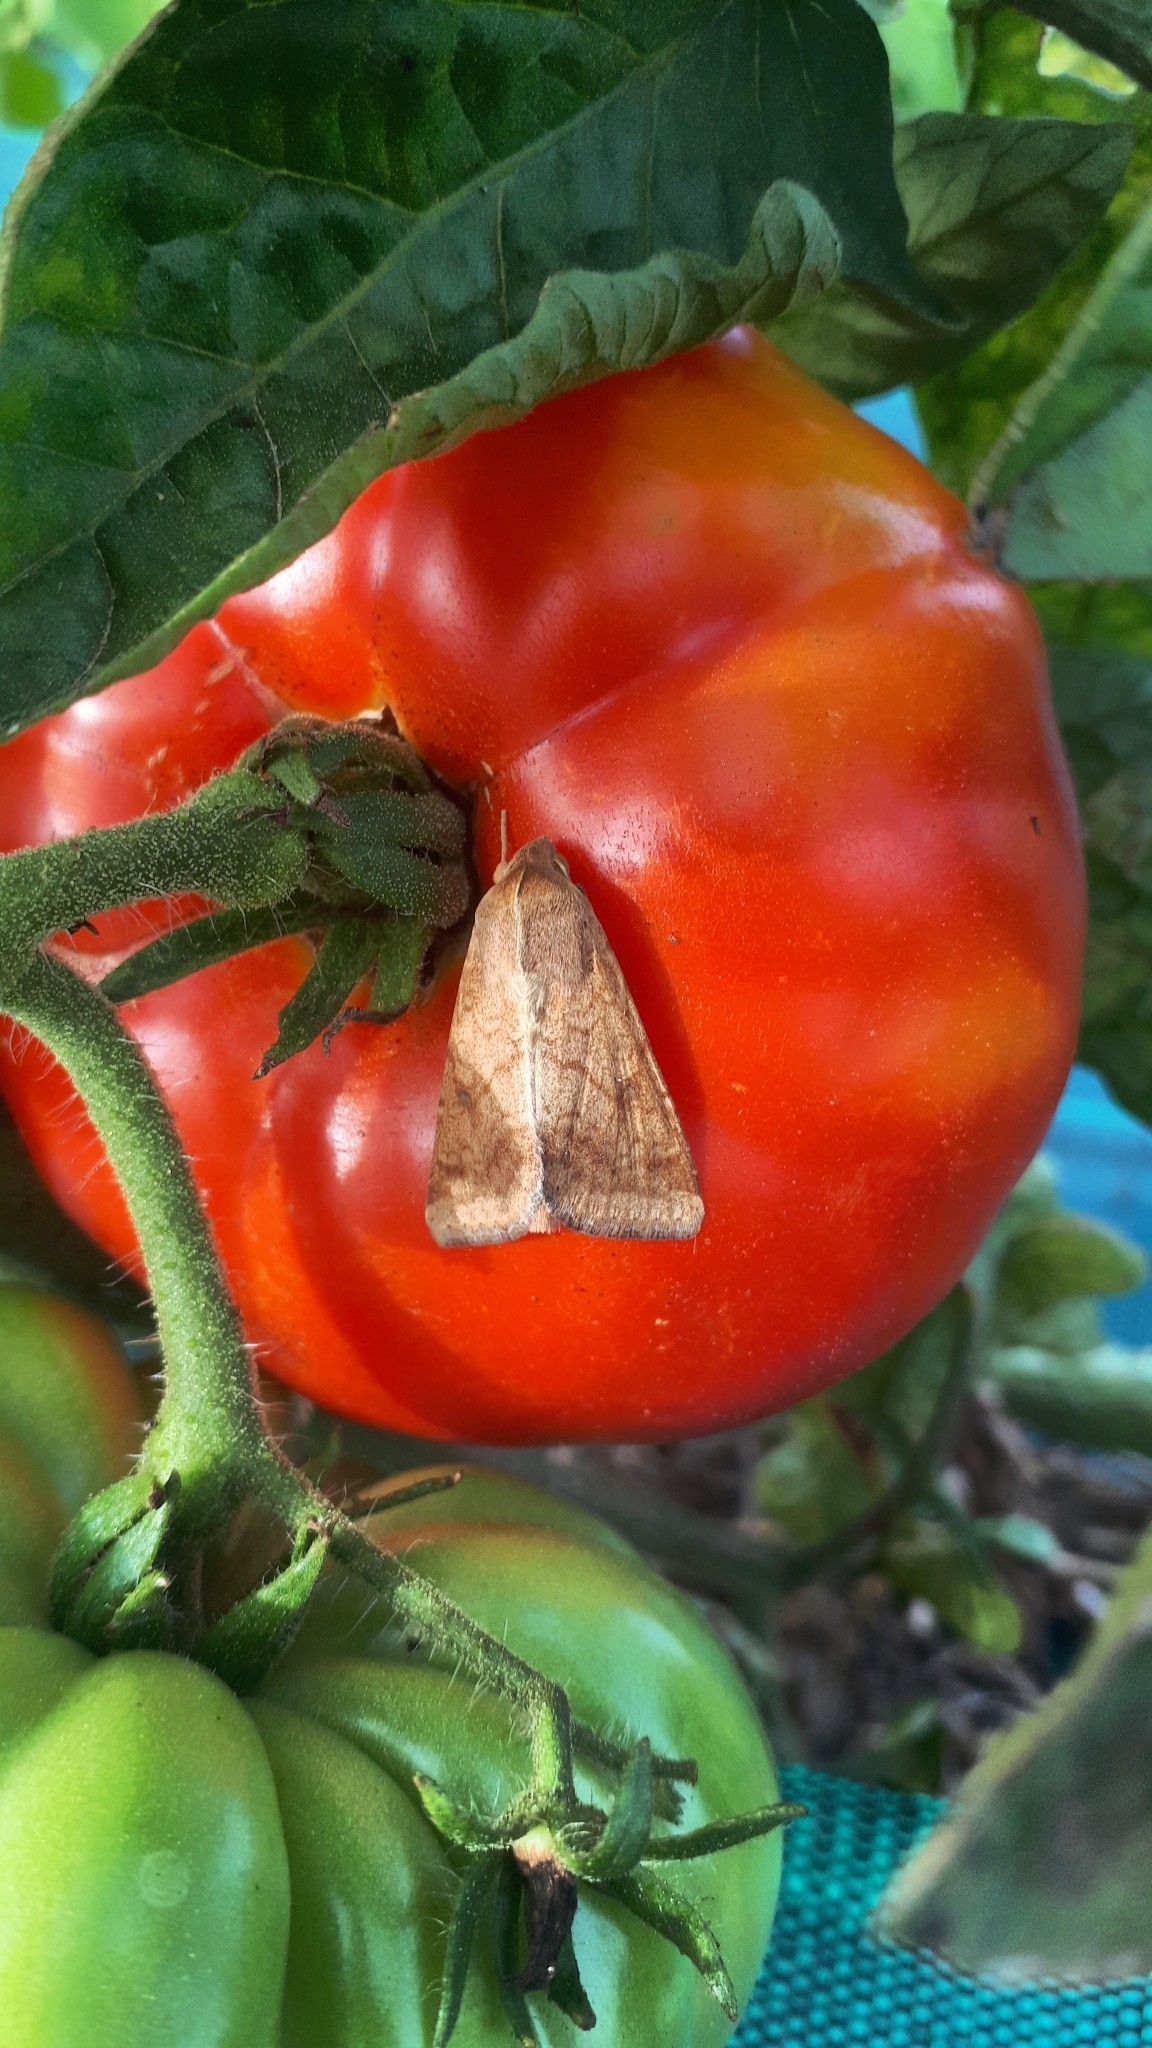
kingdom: Animalia
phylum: Arthropoda
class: Insecta
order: Lepidoptera
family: Noctuidae
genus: Helicoverpa
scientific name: Helicoverpa armigera
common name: Cotton bollworm
